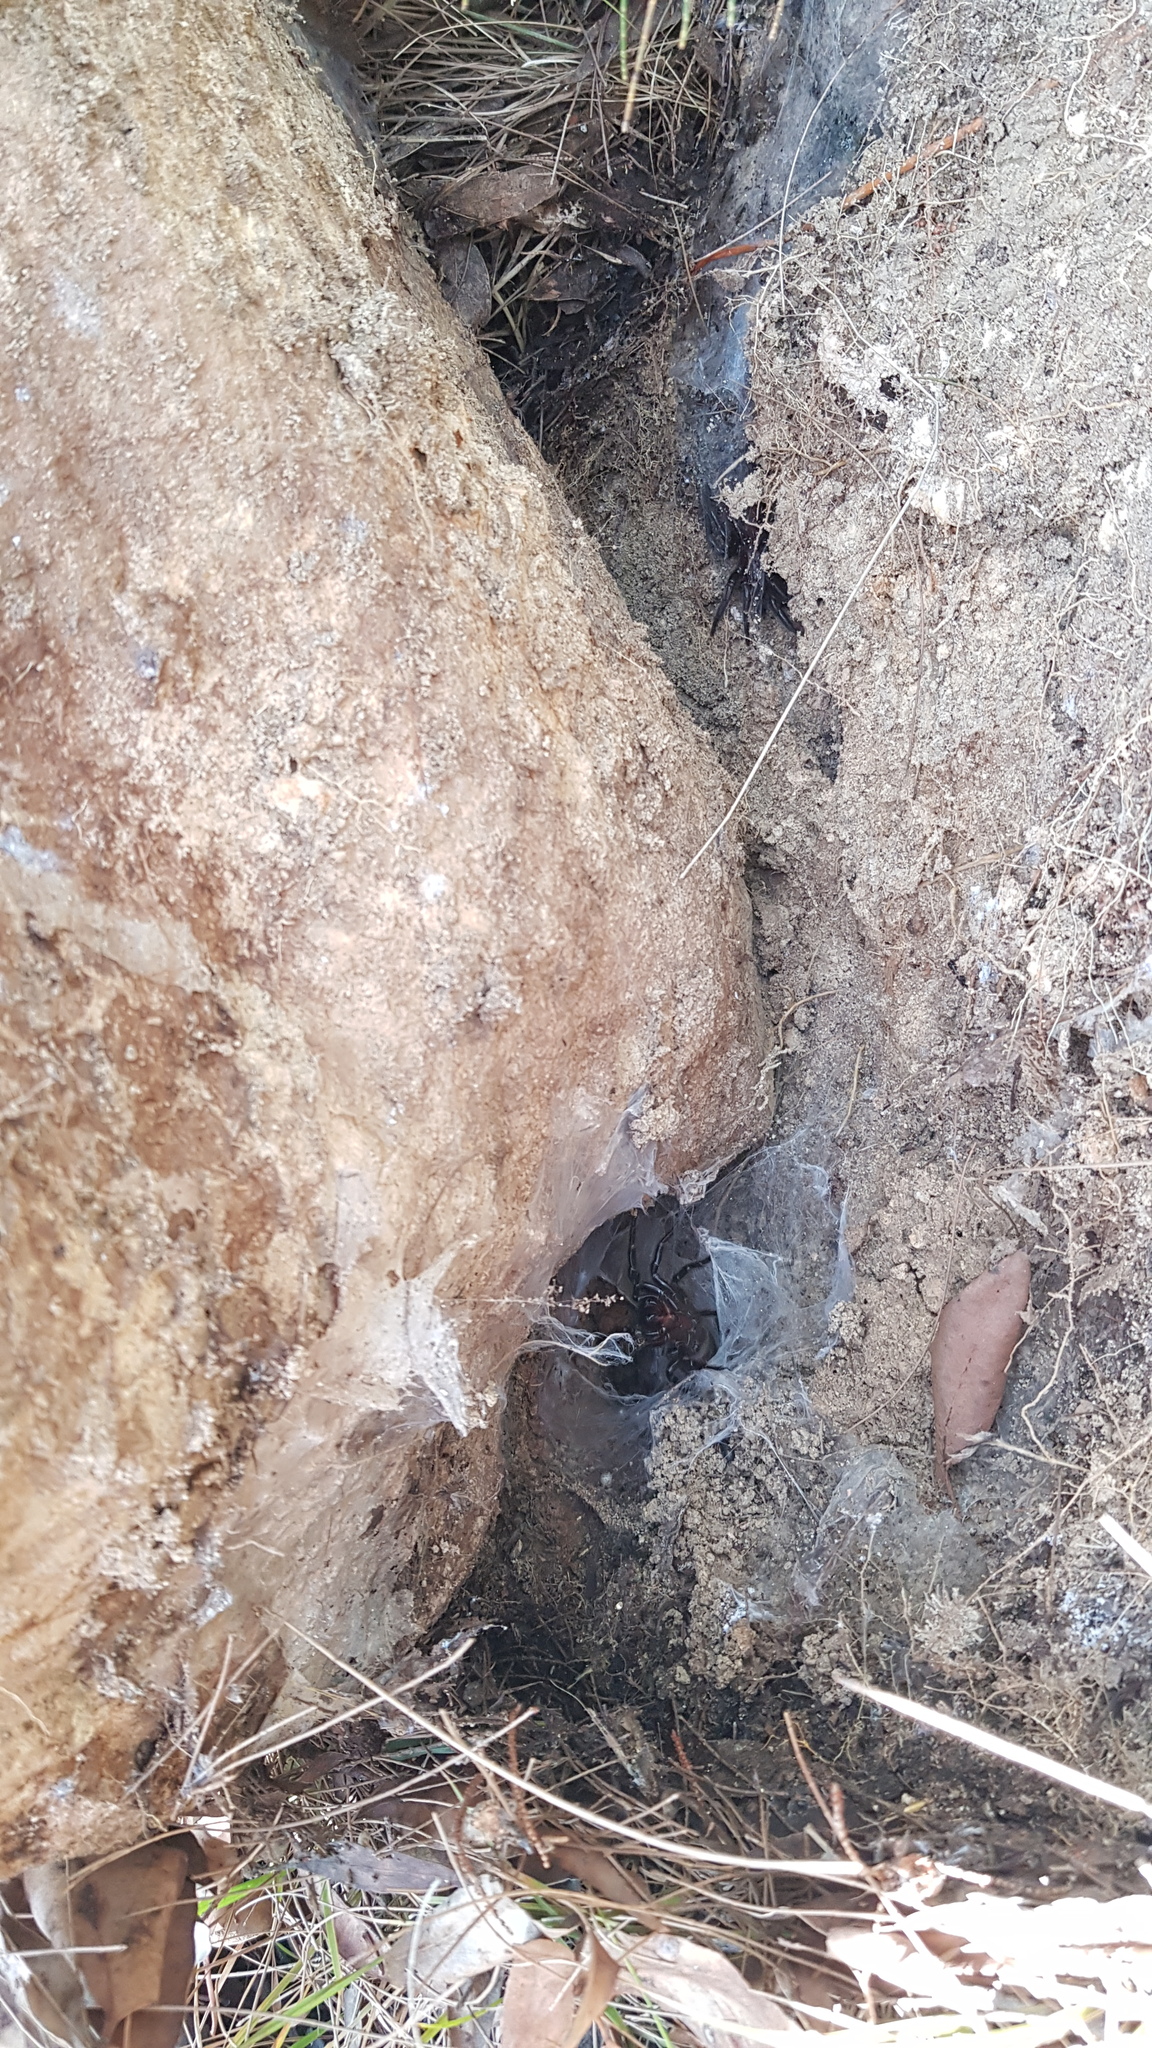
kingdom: Animalia
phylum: Arthropoda
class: Arachnida
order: Araneae
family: Atracidae
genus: Atrax
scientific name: Atrax robustus
